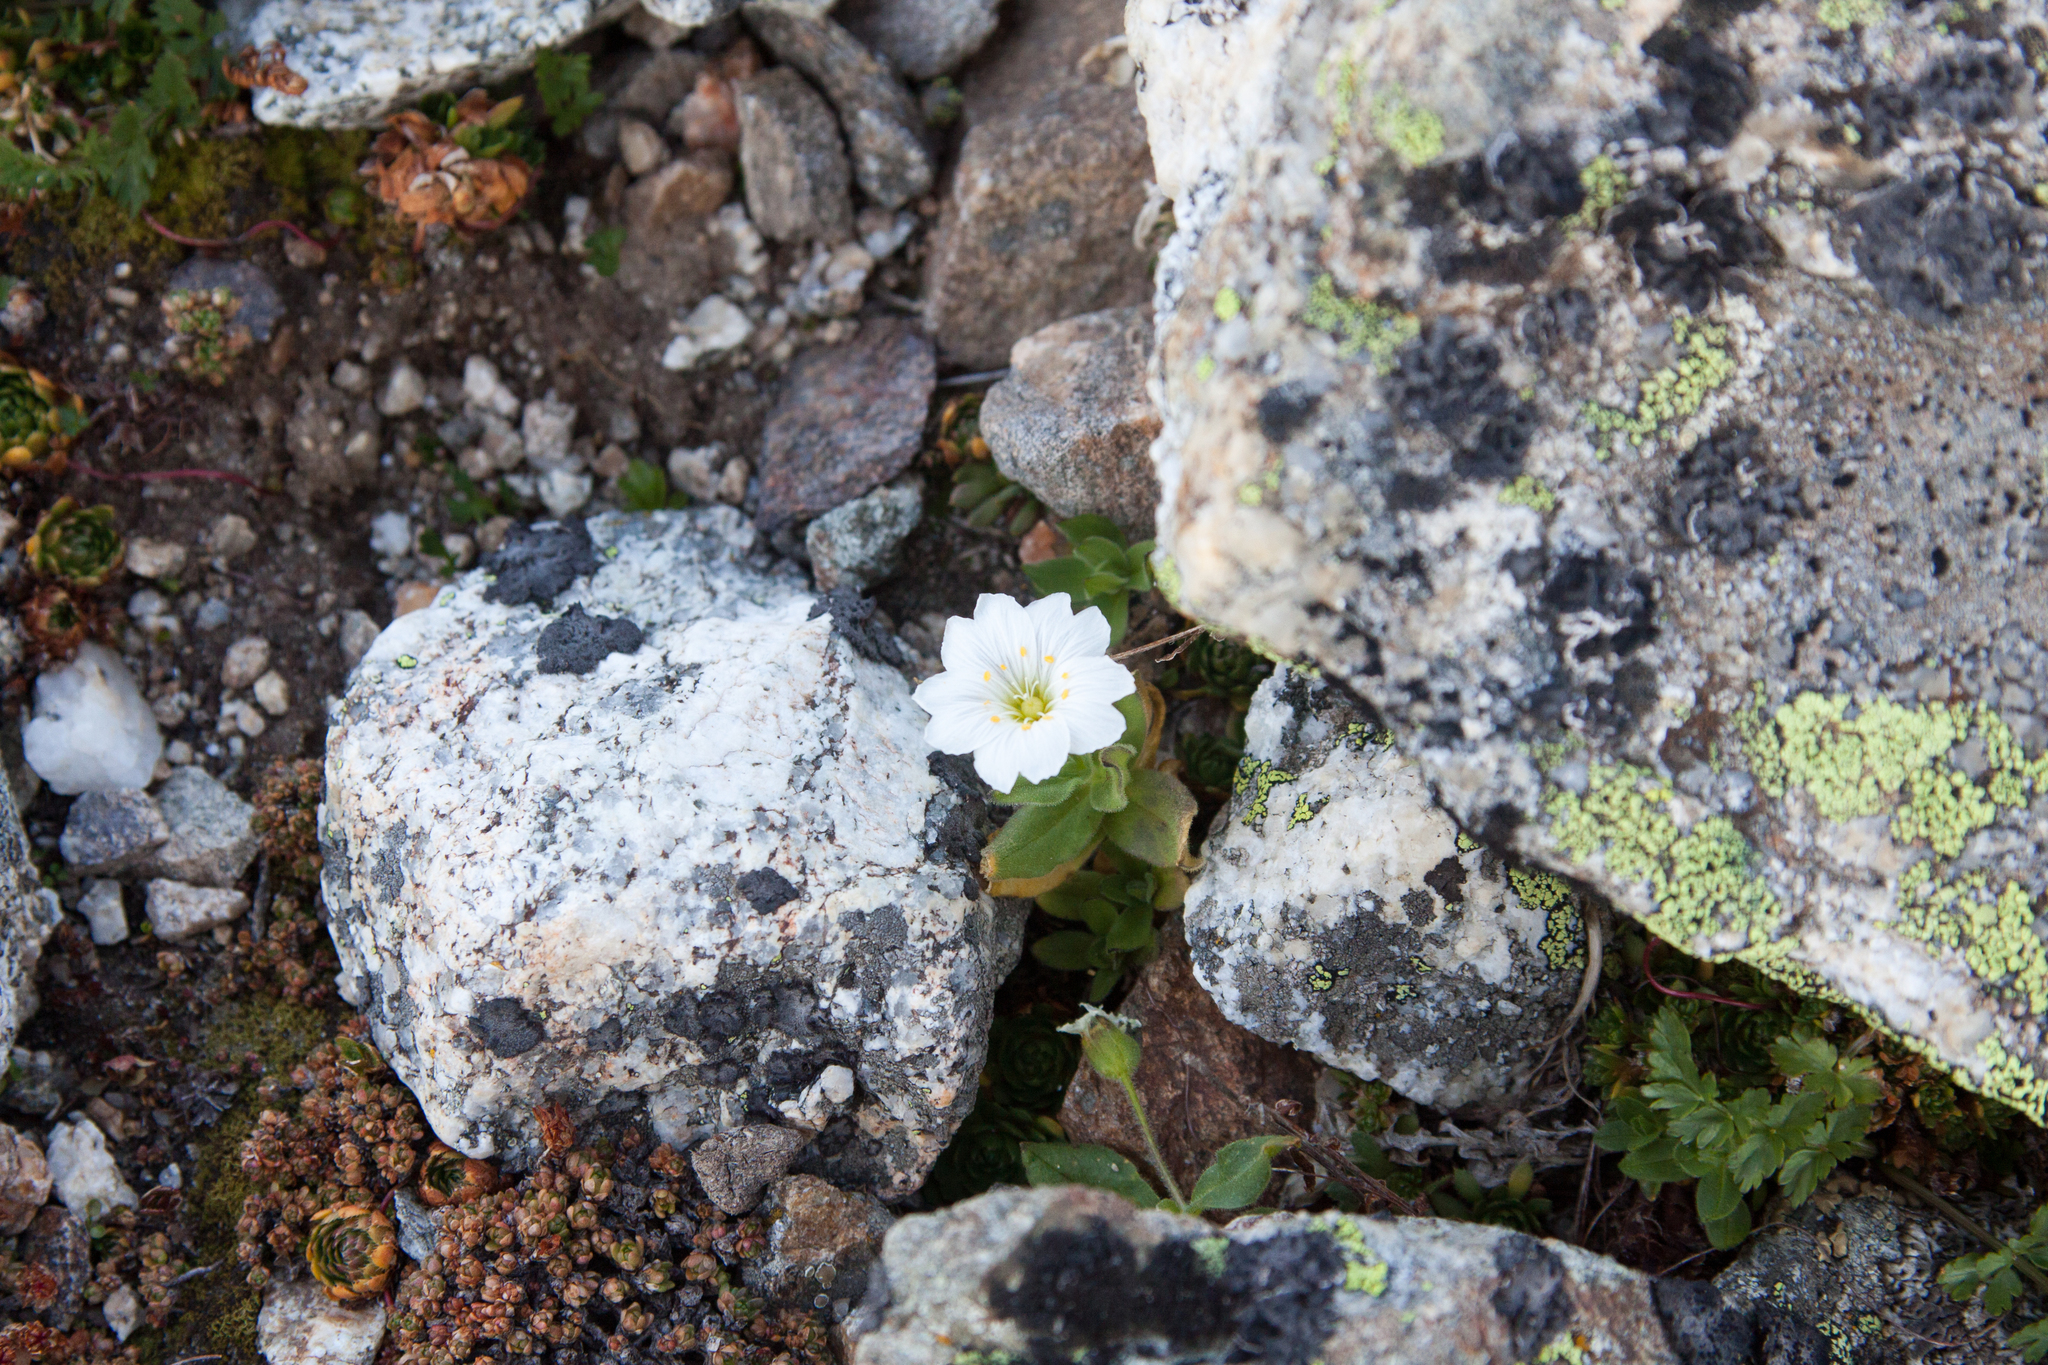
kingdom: Plantae
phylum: Tracheophyta
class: Magnoliopsida
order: Caryophyllales
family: Caryophyllaceae
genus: Cerastium
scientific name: Cerastium undulatifolium
